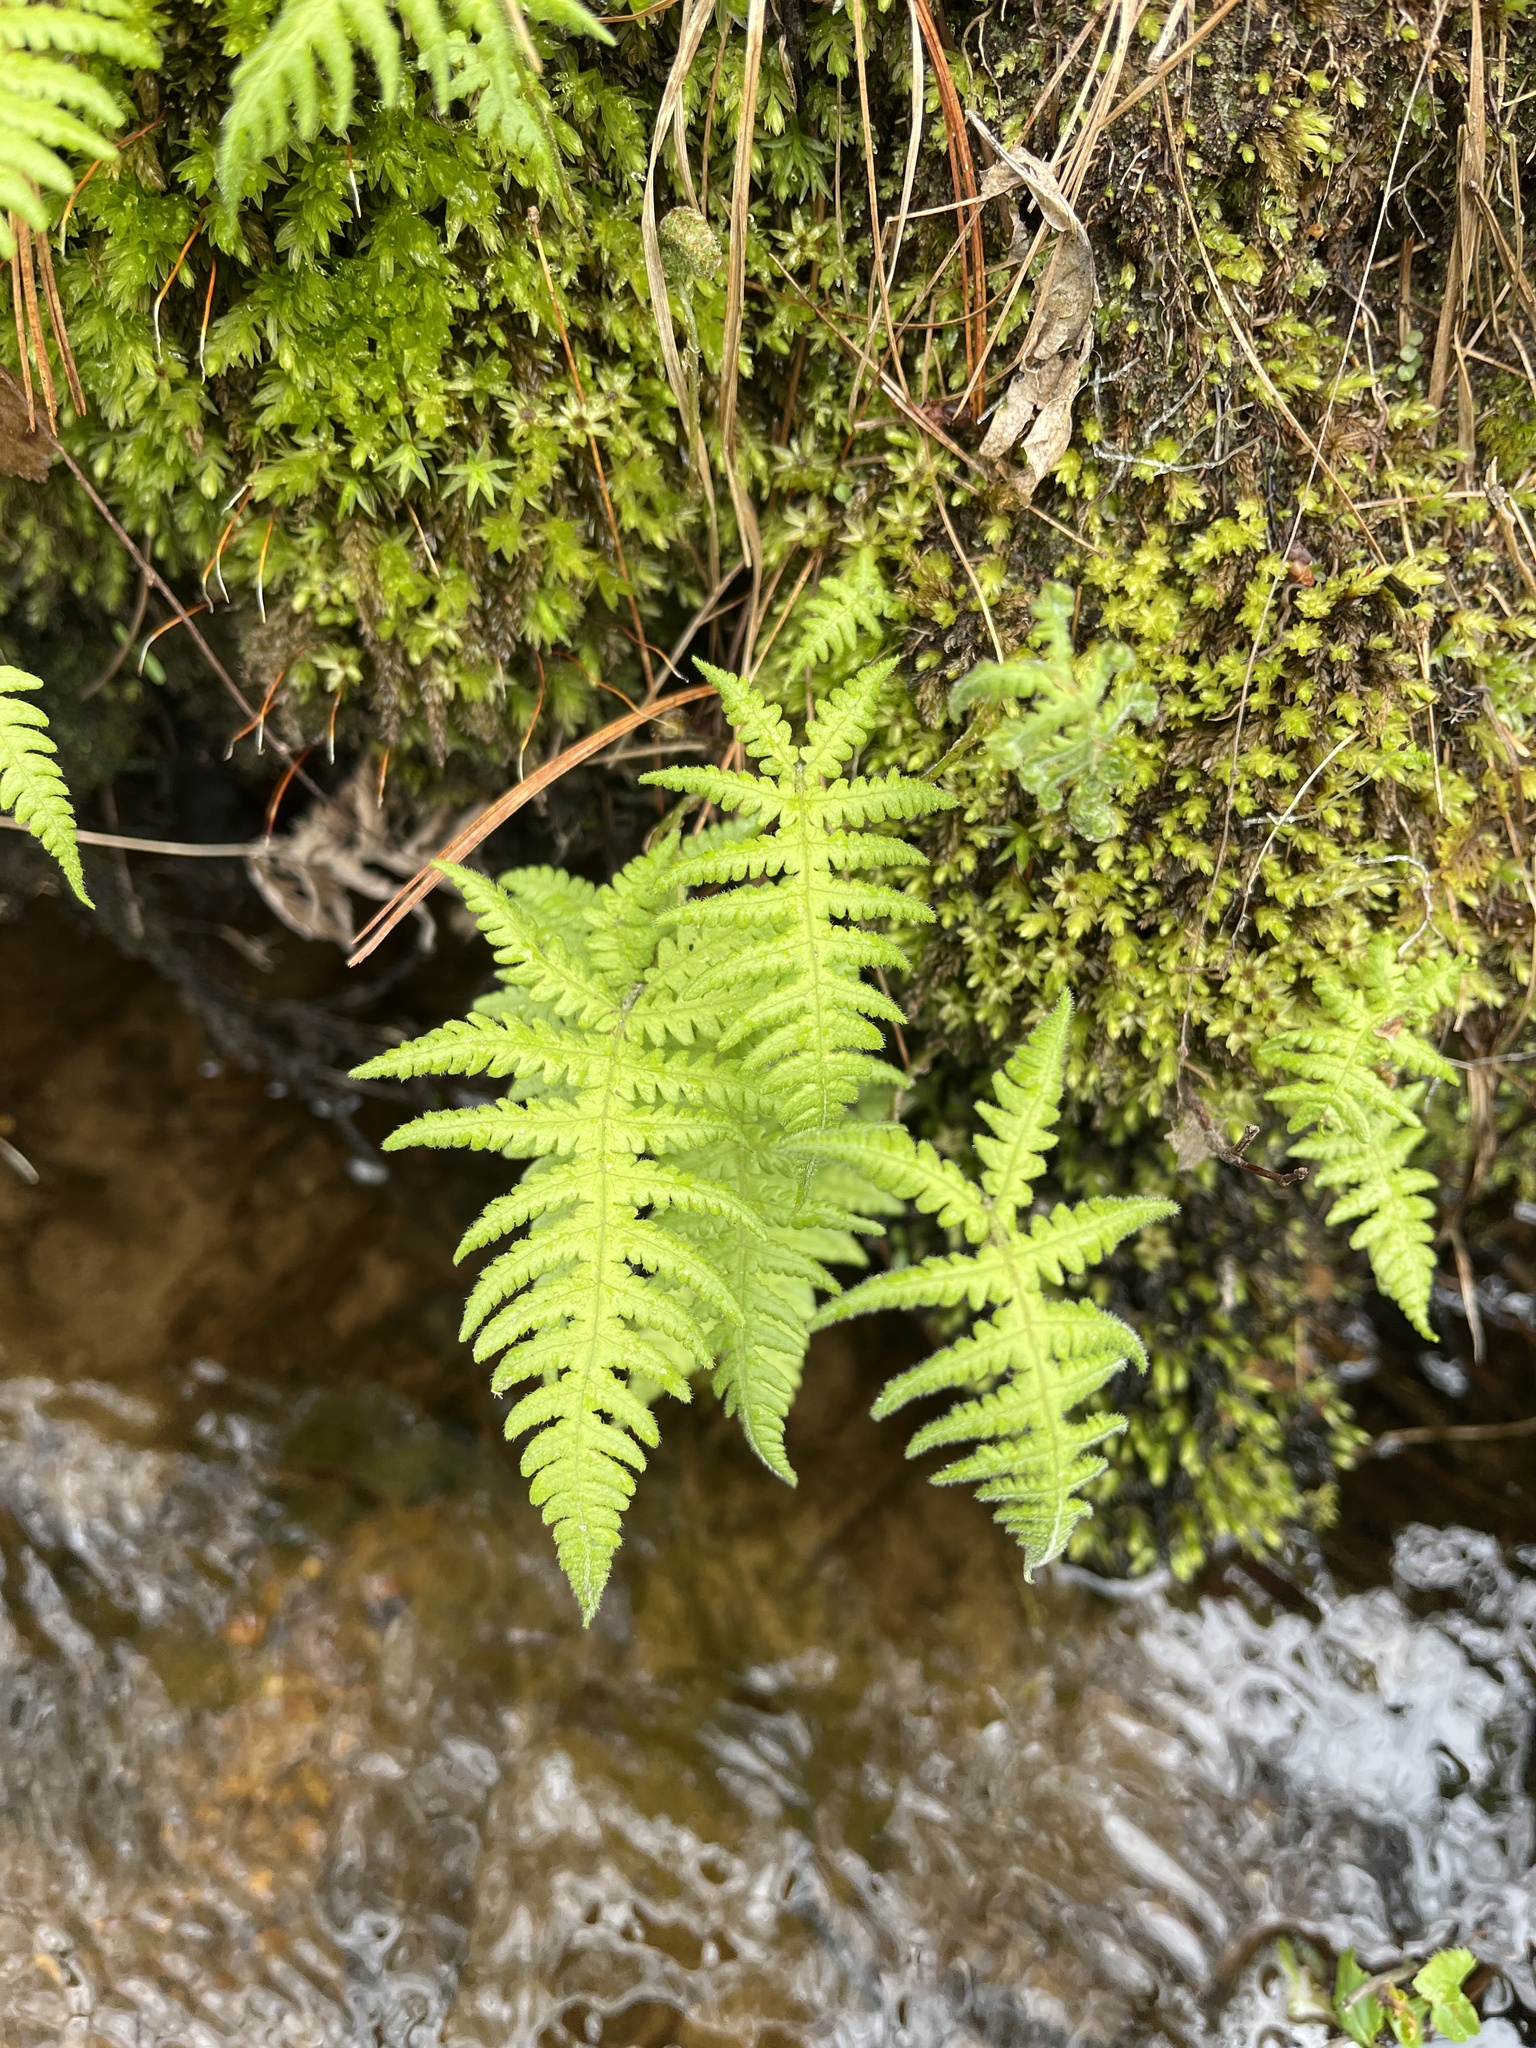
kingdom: Plantae
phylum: Tracheophyta
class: Polypodiopsida
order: Polypodiales
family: Thelypteridaceae
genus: Phegopteris
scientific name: Phegopteris connectilis
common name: Beech fern
